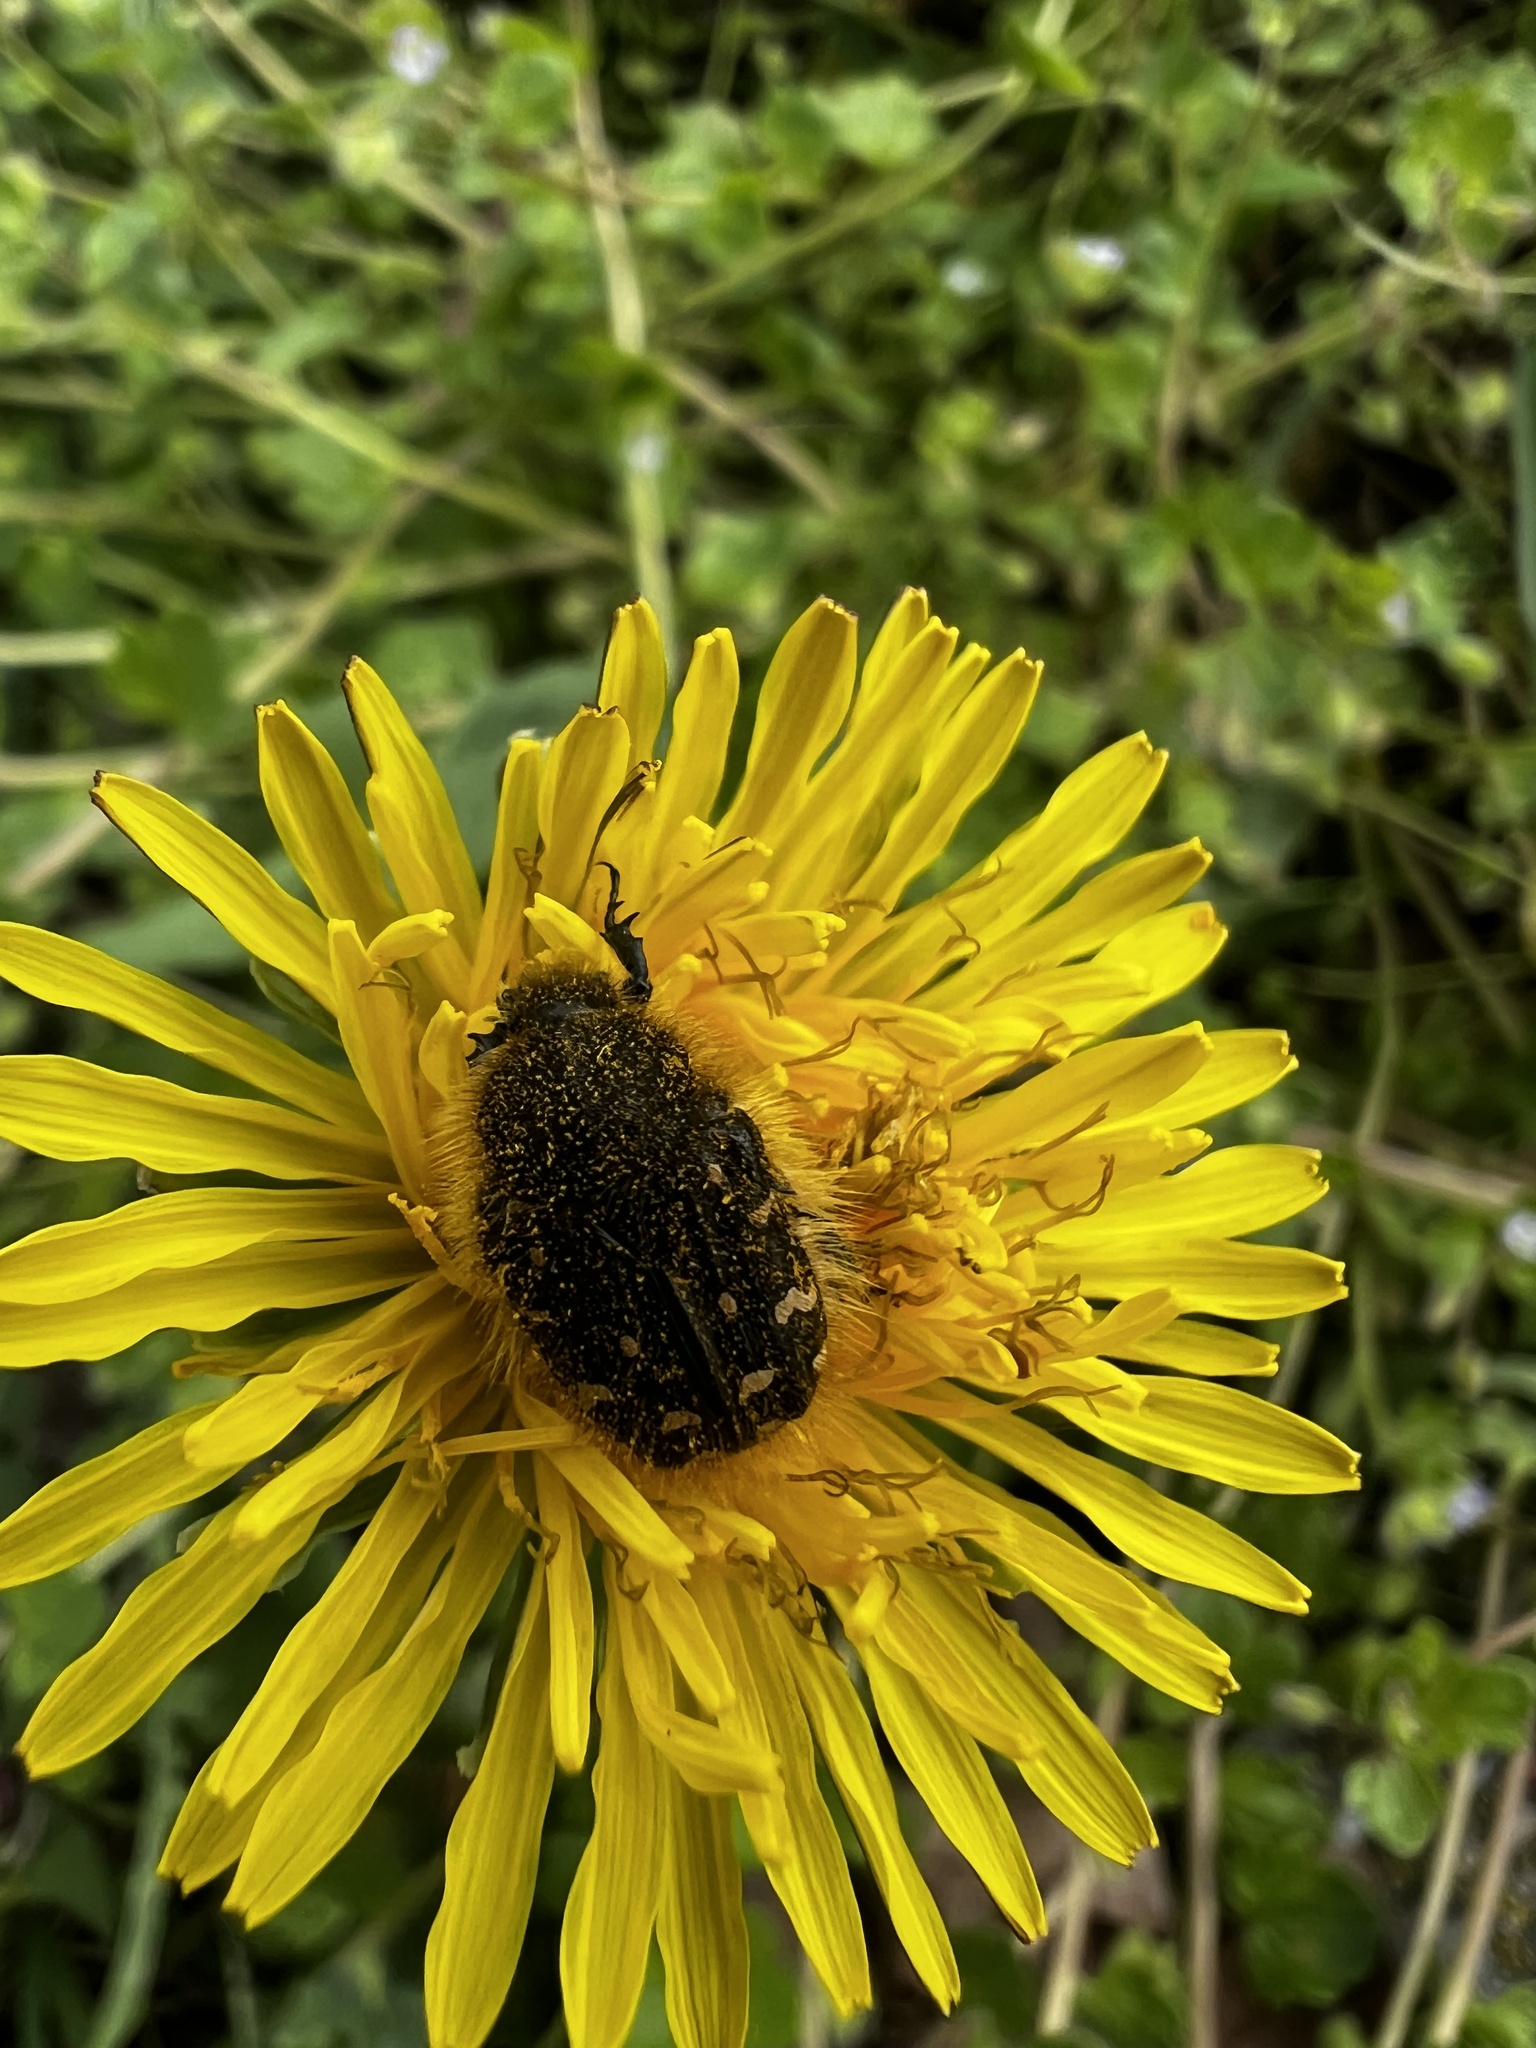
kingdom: Animalia
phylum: Arthropoda
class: Insecta
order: Coleoptera
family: Scarabaeidae
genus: Tropinota
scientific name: Tropinota hirta
